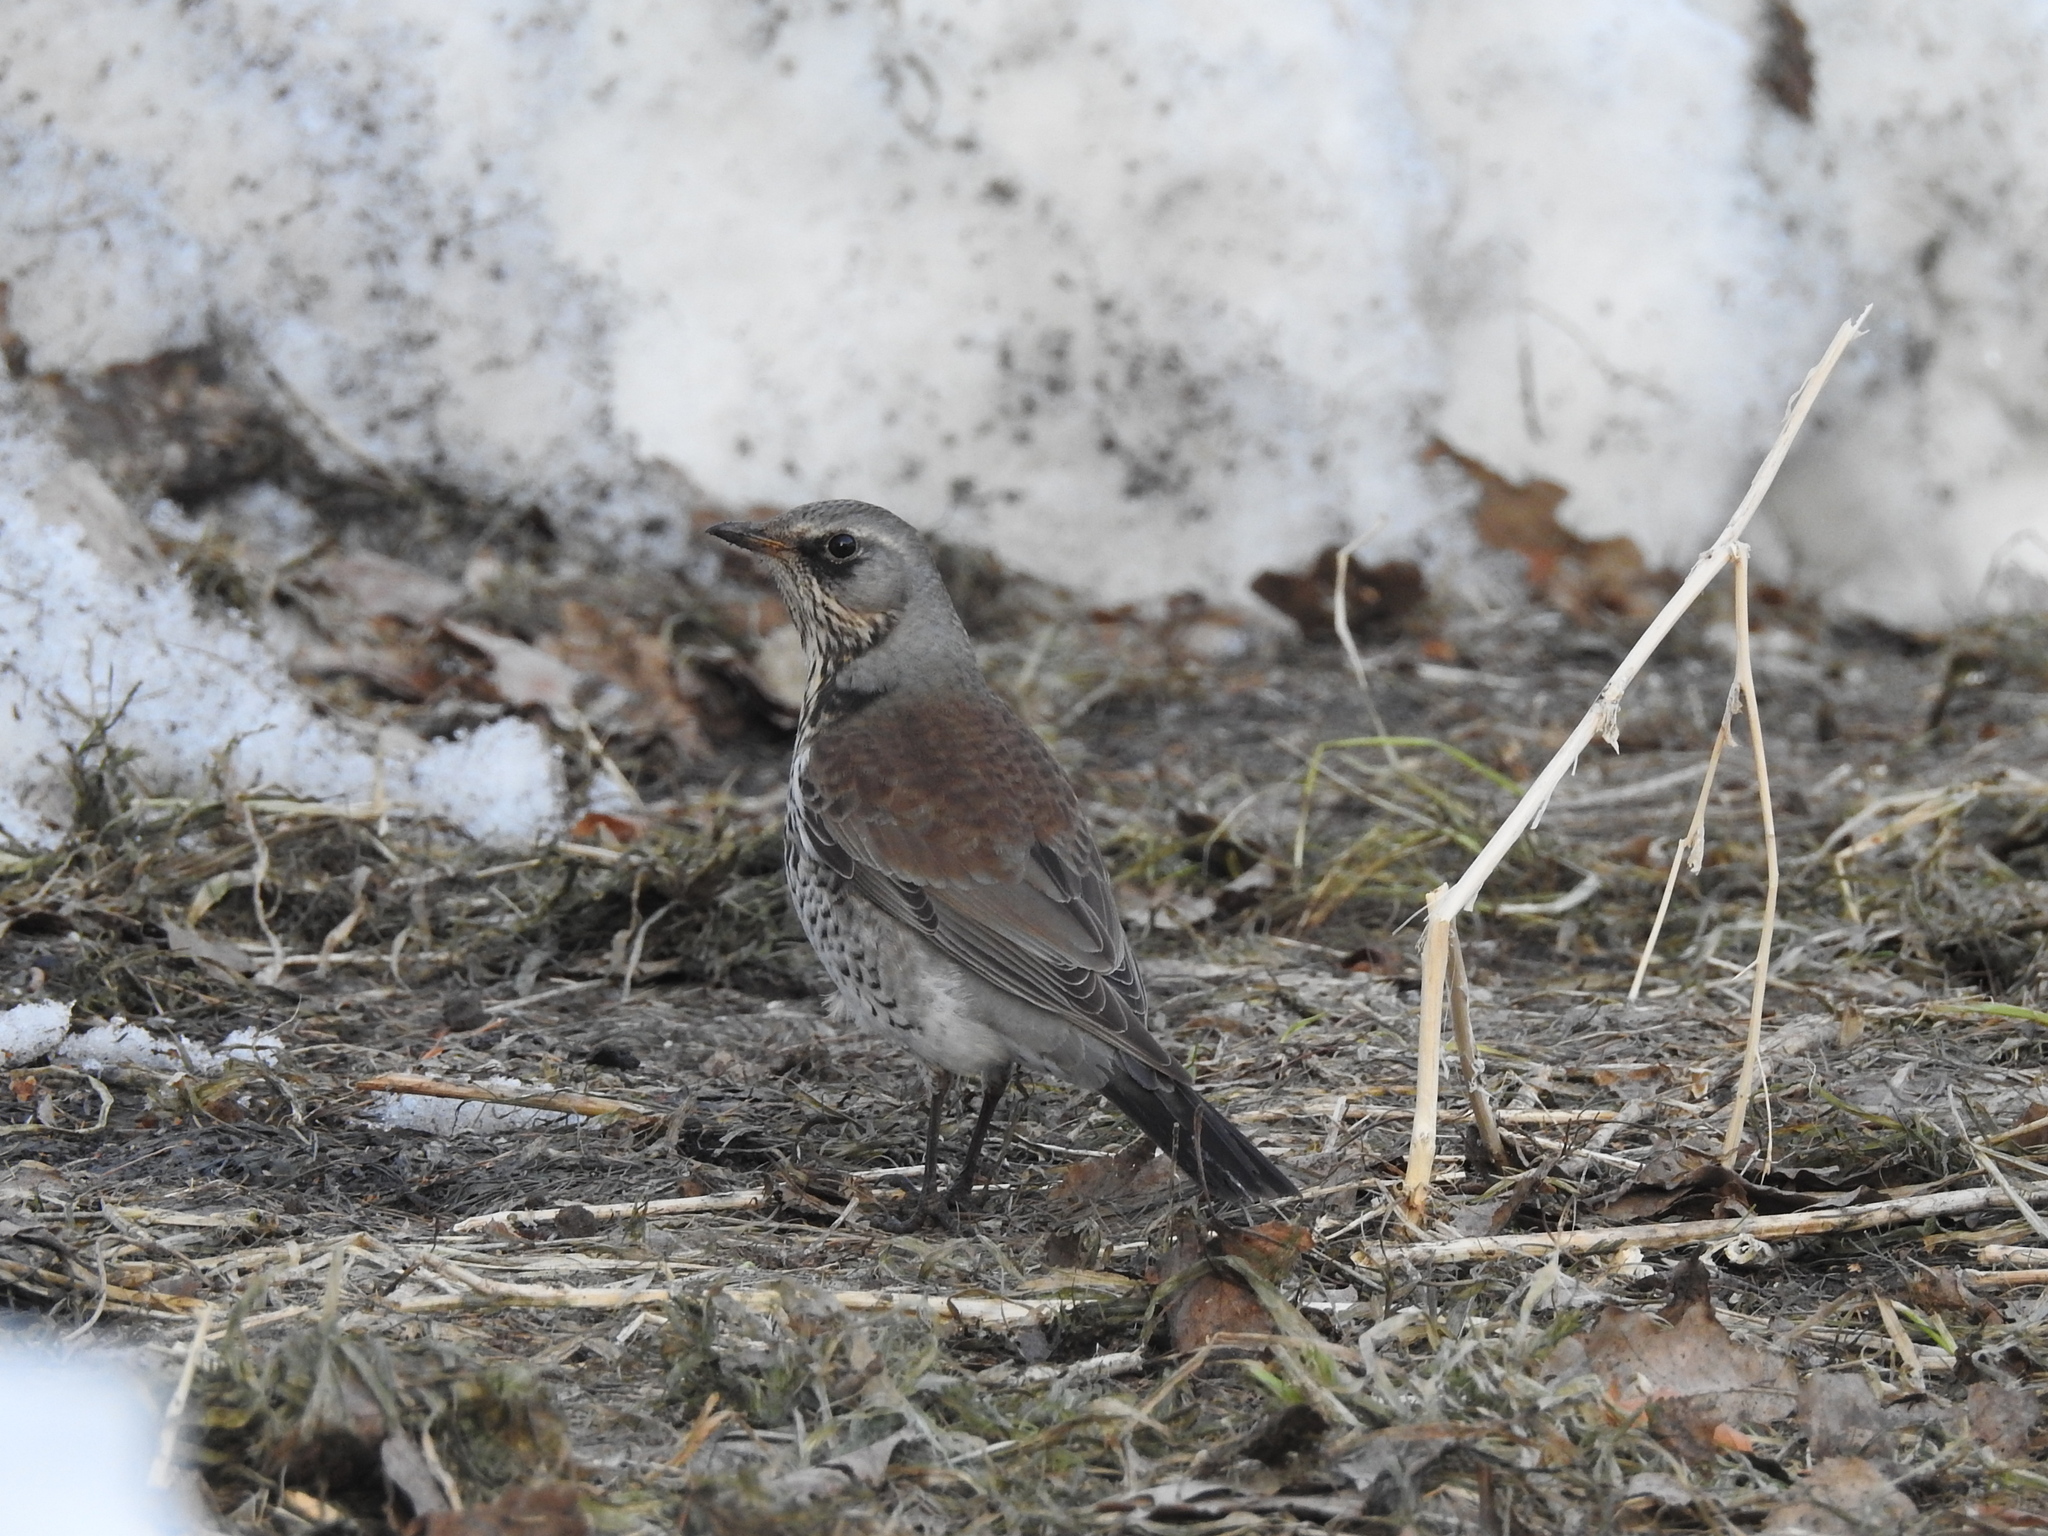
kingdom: Animalia
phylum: Chordata
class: Aves
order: Passeriformes
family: Turdidae
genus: Turdus
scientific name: Turdus pilaris
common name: Fieldfare
